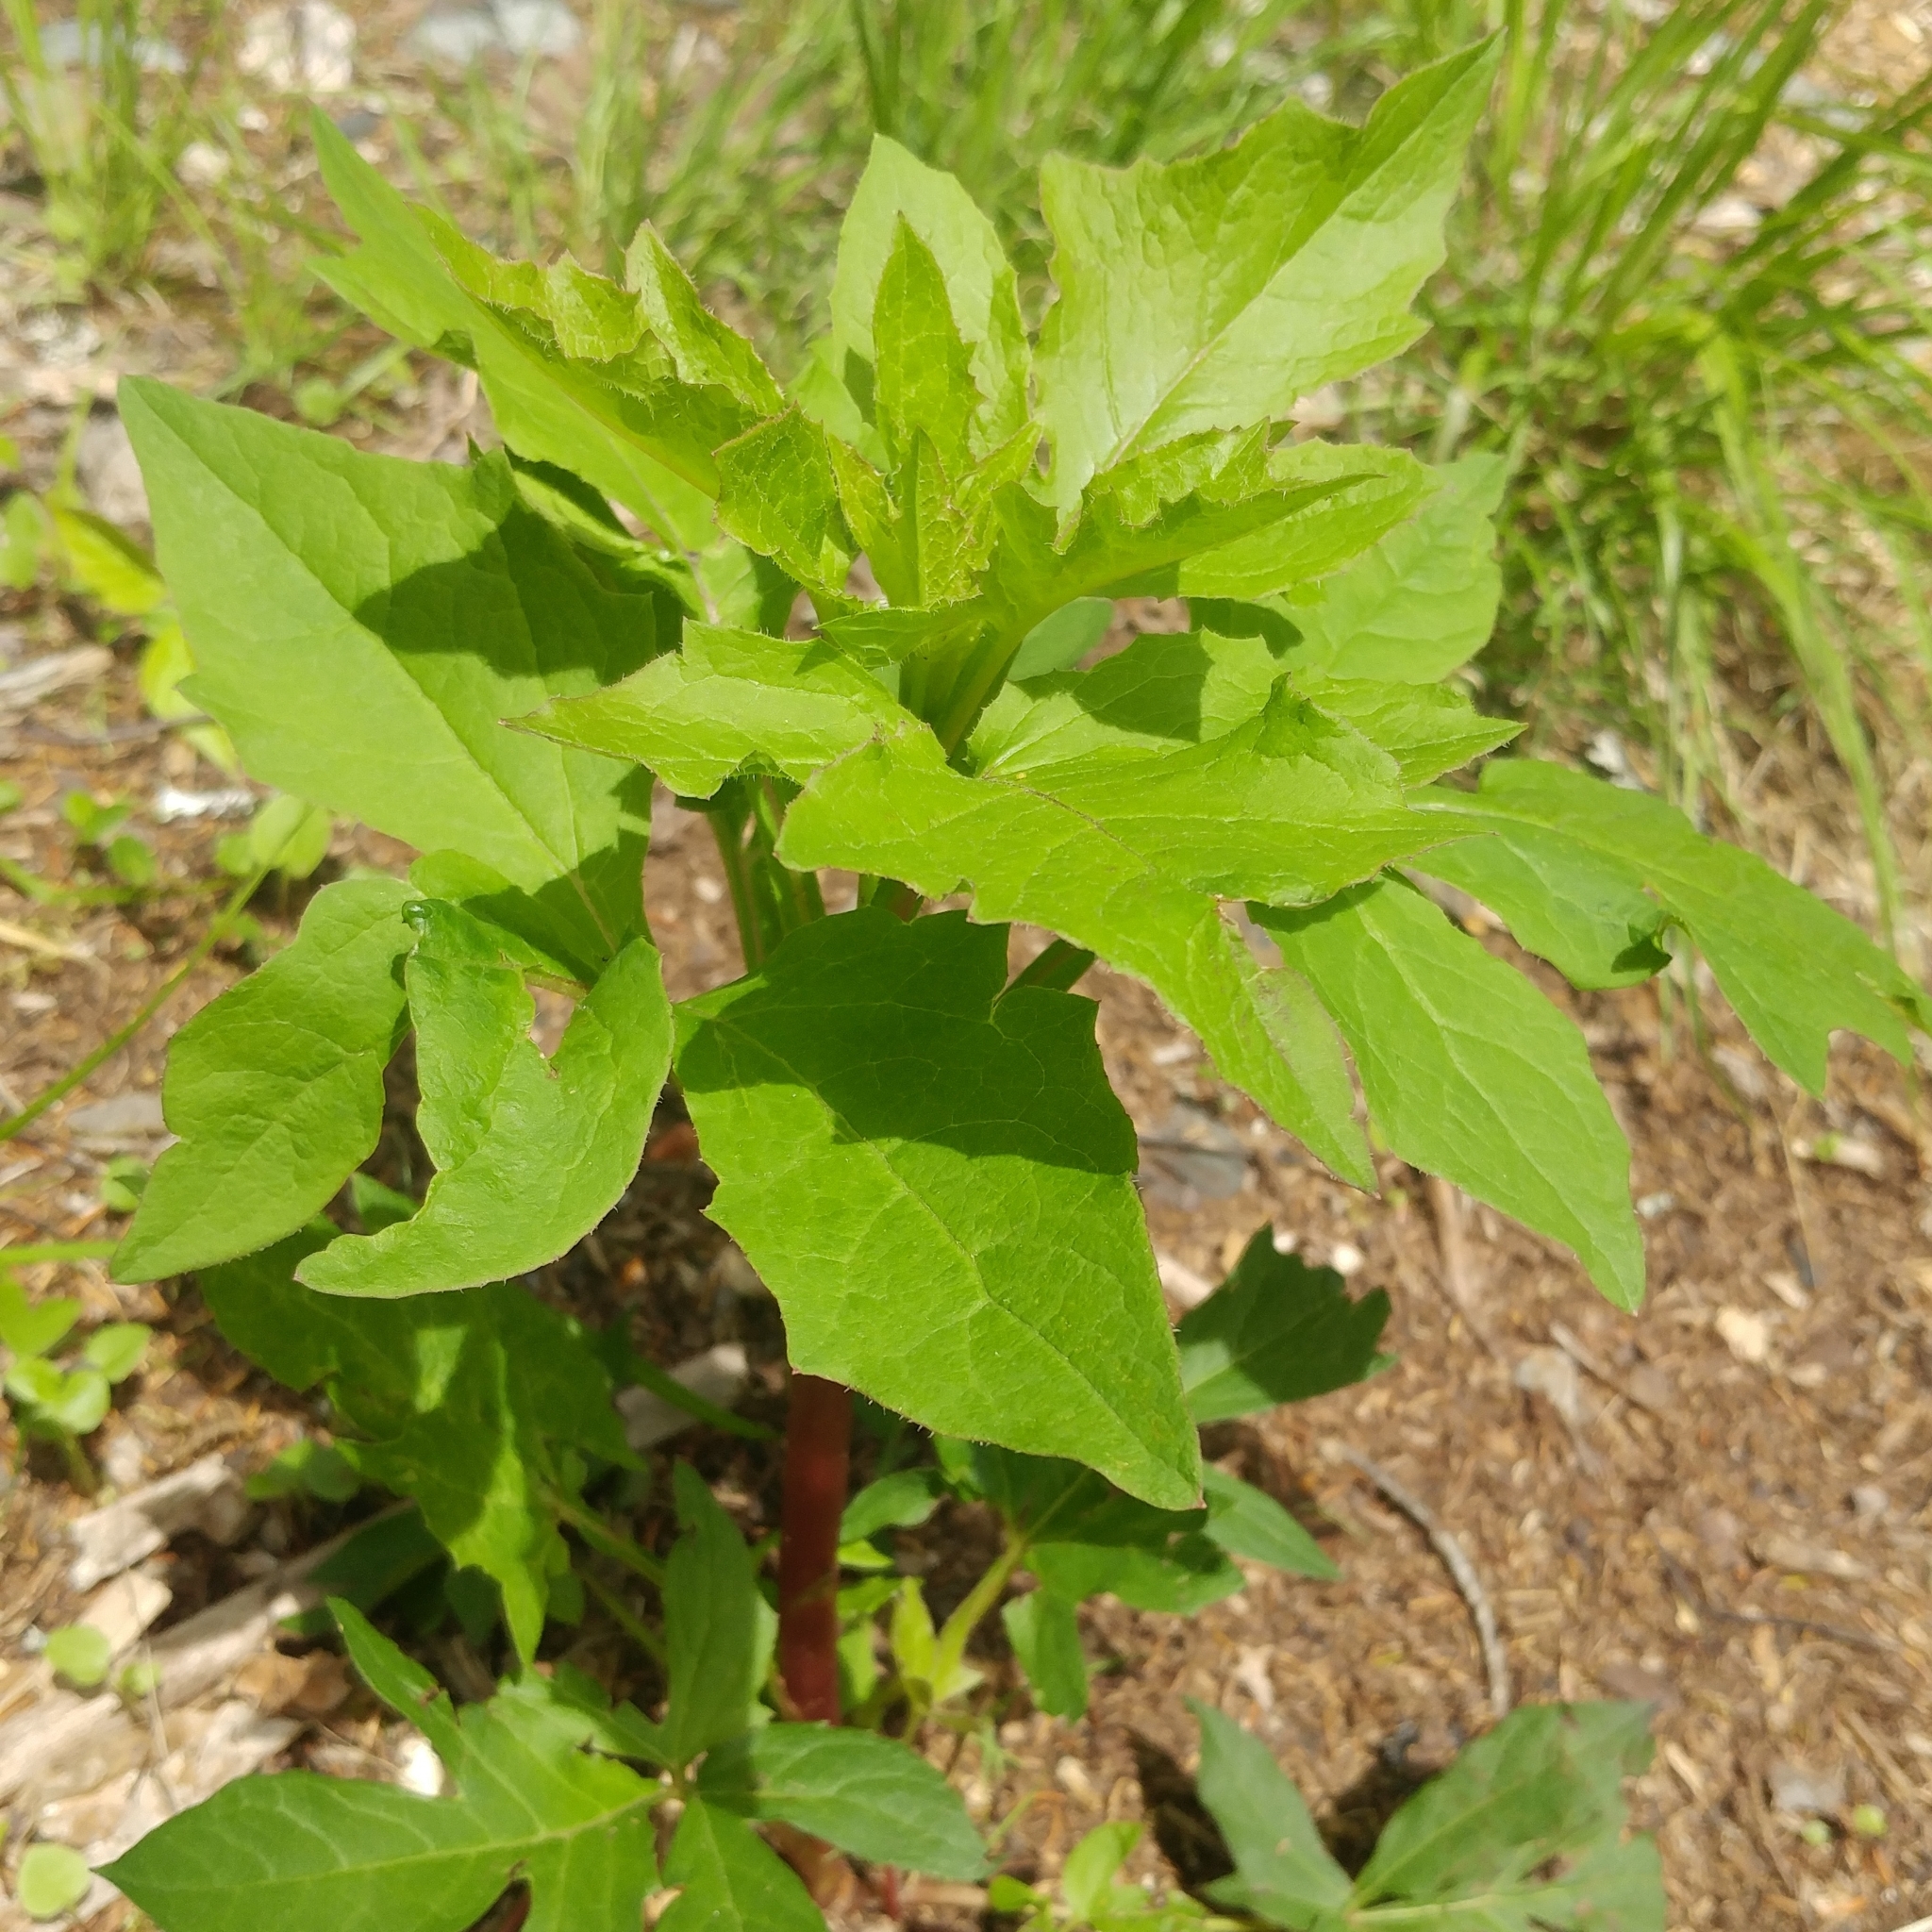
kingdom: Plantae
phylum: Tracheophyta
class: Magnoliopsida
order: Asterales
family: Asteraceae
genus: Nabalus
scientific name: Nabalus trifoliolatus
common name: Gall-of-the-earth
